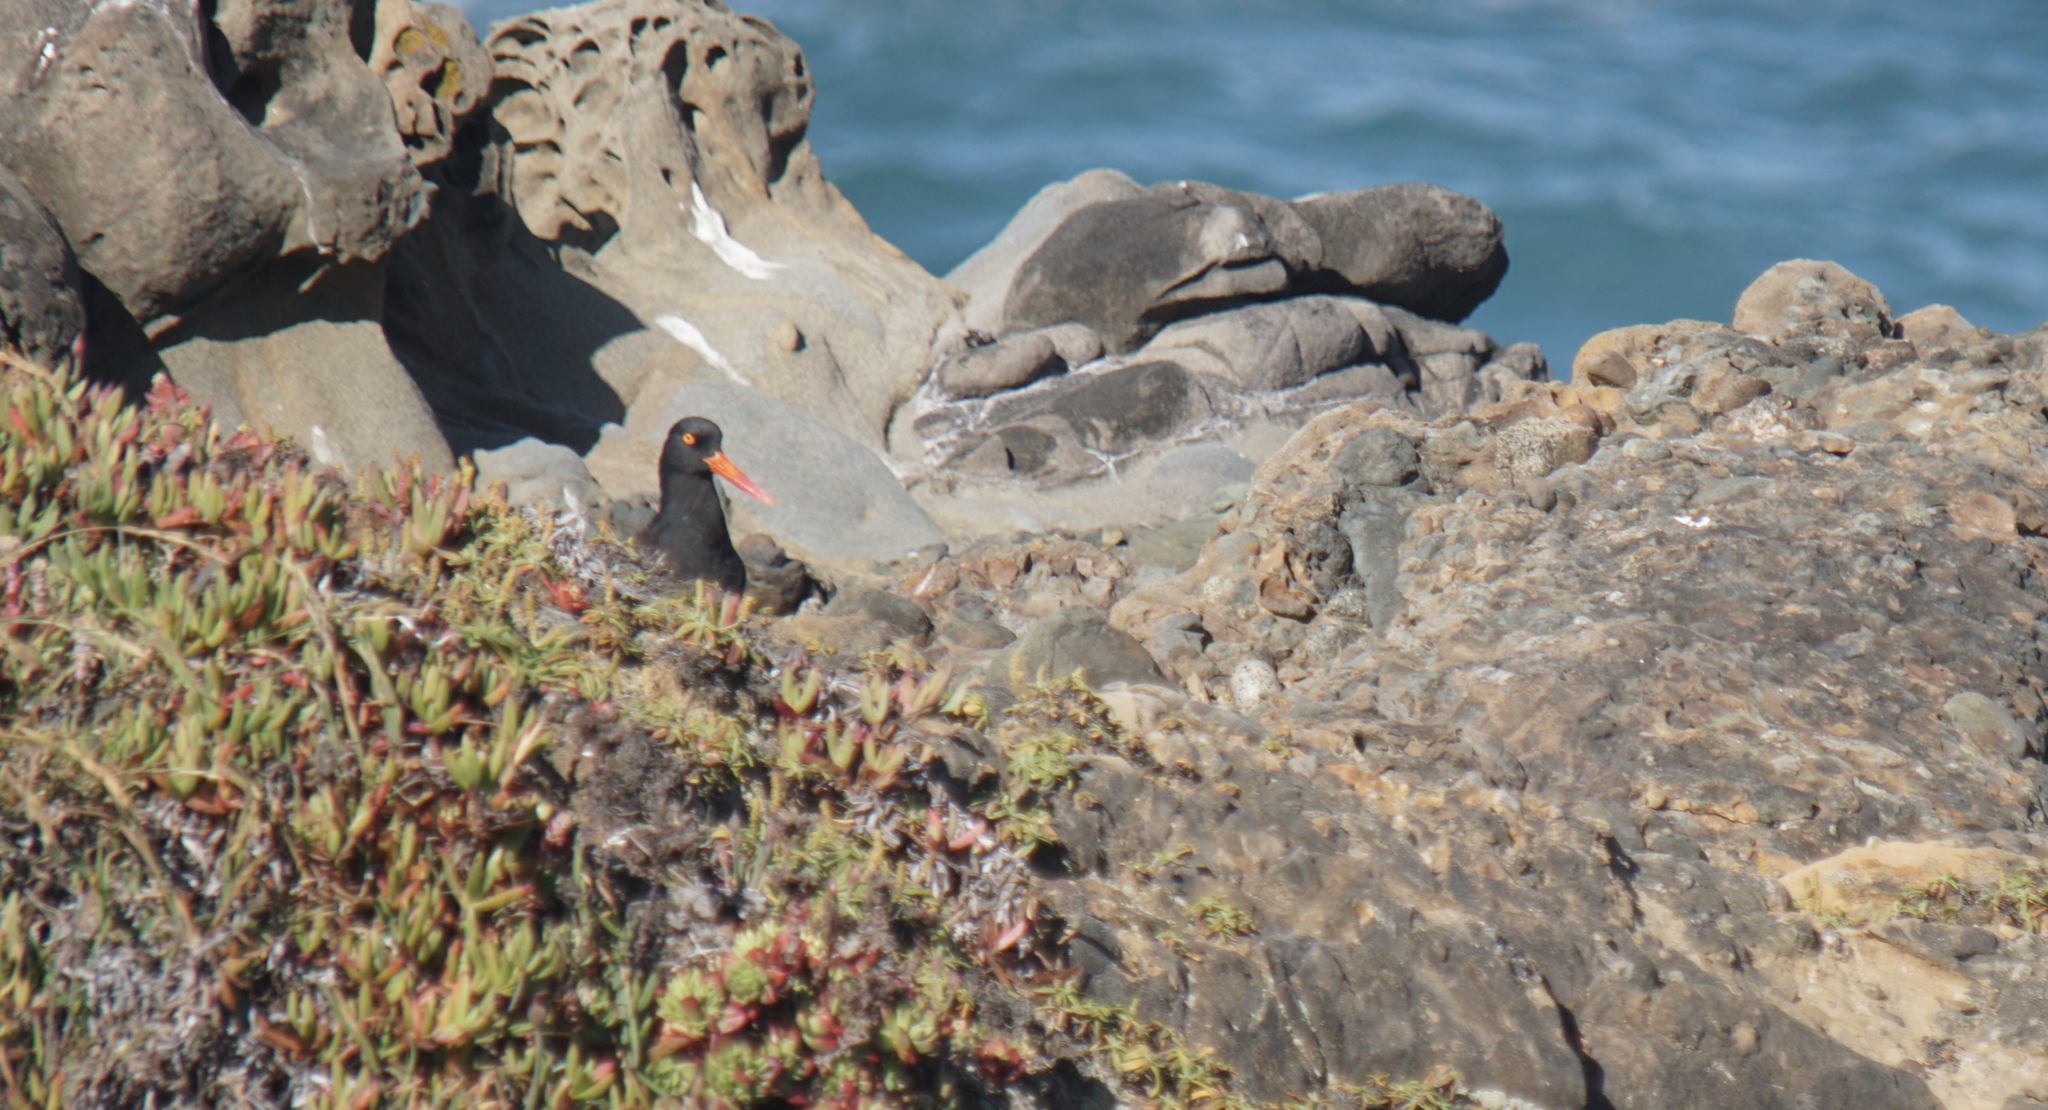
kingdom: Animalia
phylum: Chordata
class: Aves
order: Charadriiformes
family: Haematopodidae
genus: Haematopus
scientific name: Haematopus bachmani
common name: Black oystercatcher
